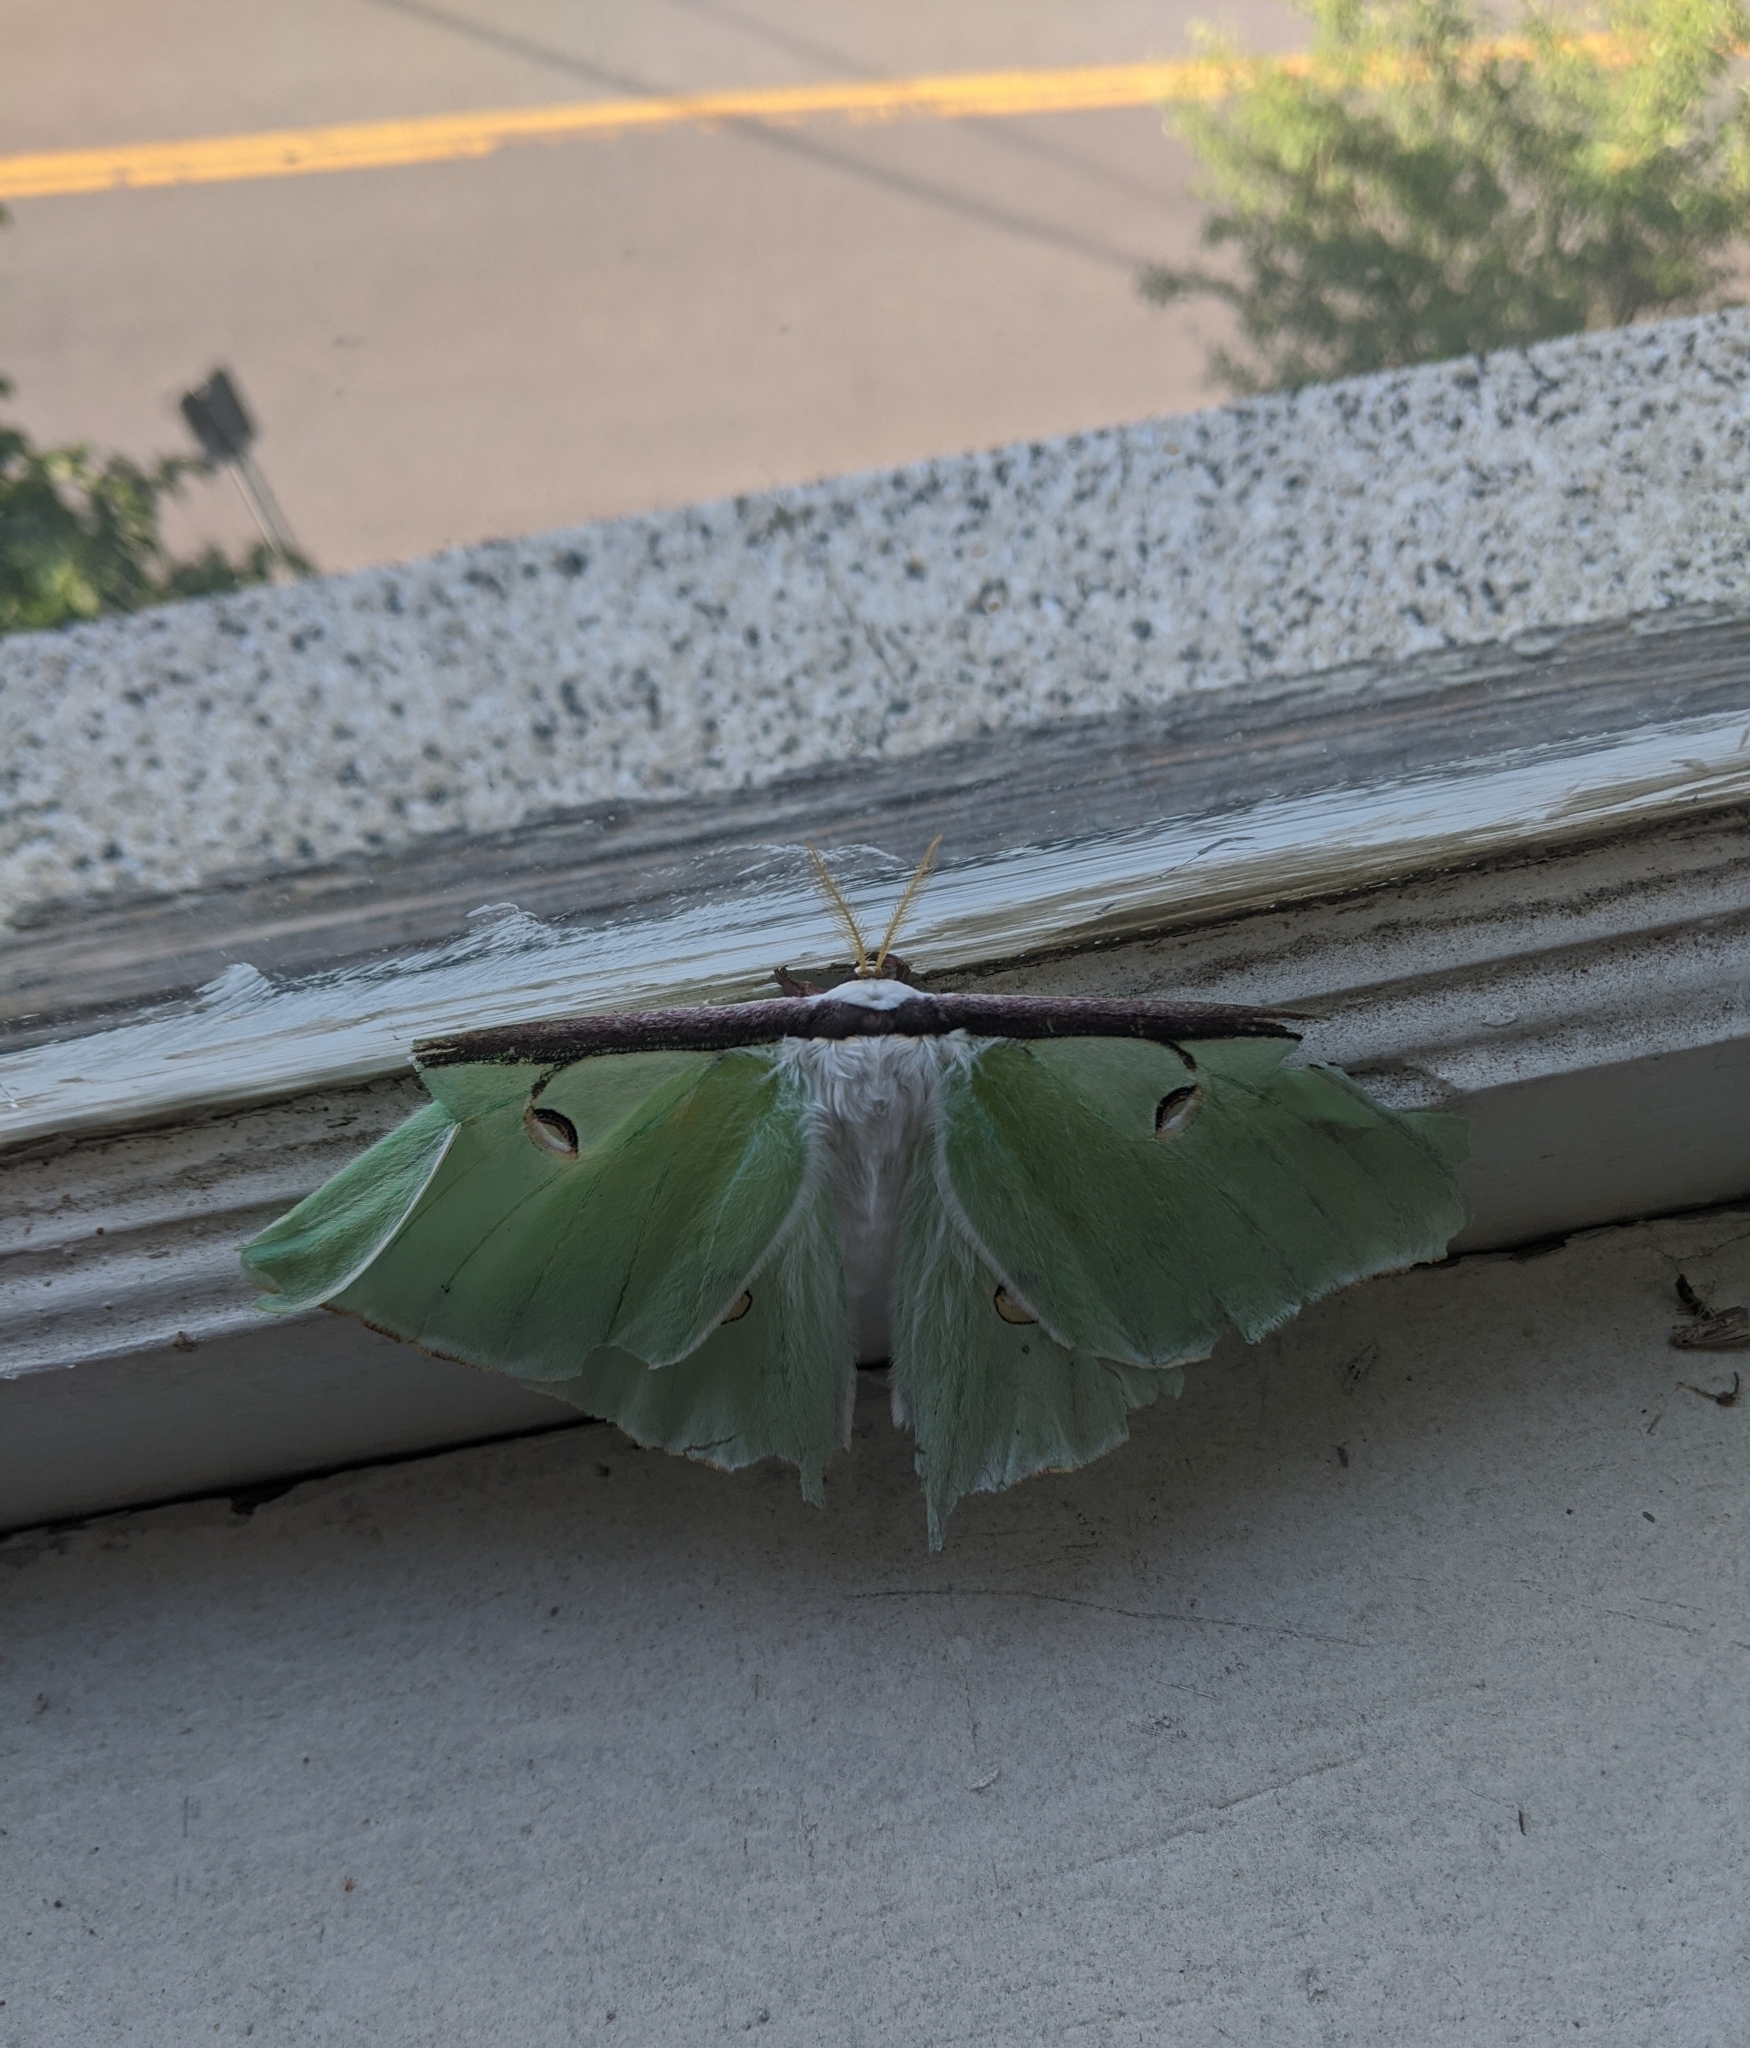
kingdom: Animalia
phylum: Arthropoda
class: Insecta
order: Lepidoptera
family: Saturniidae
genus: Actias
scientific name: Actias luna
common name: Luna moth
